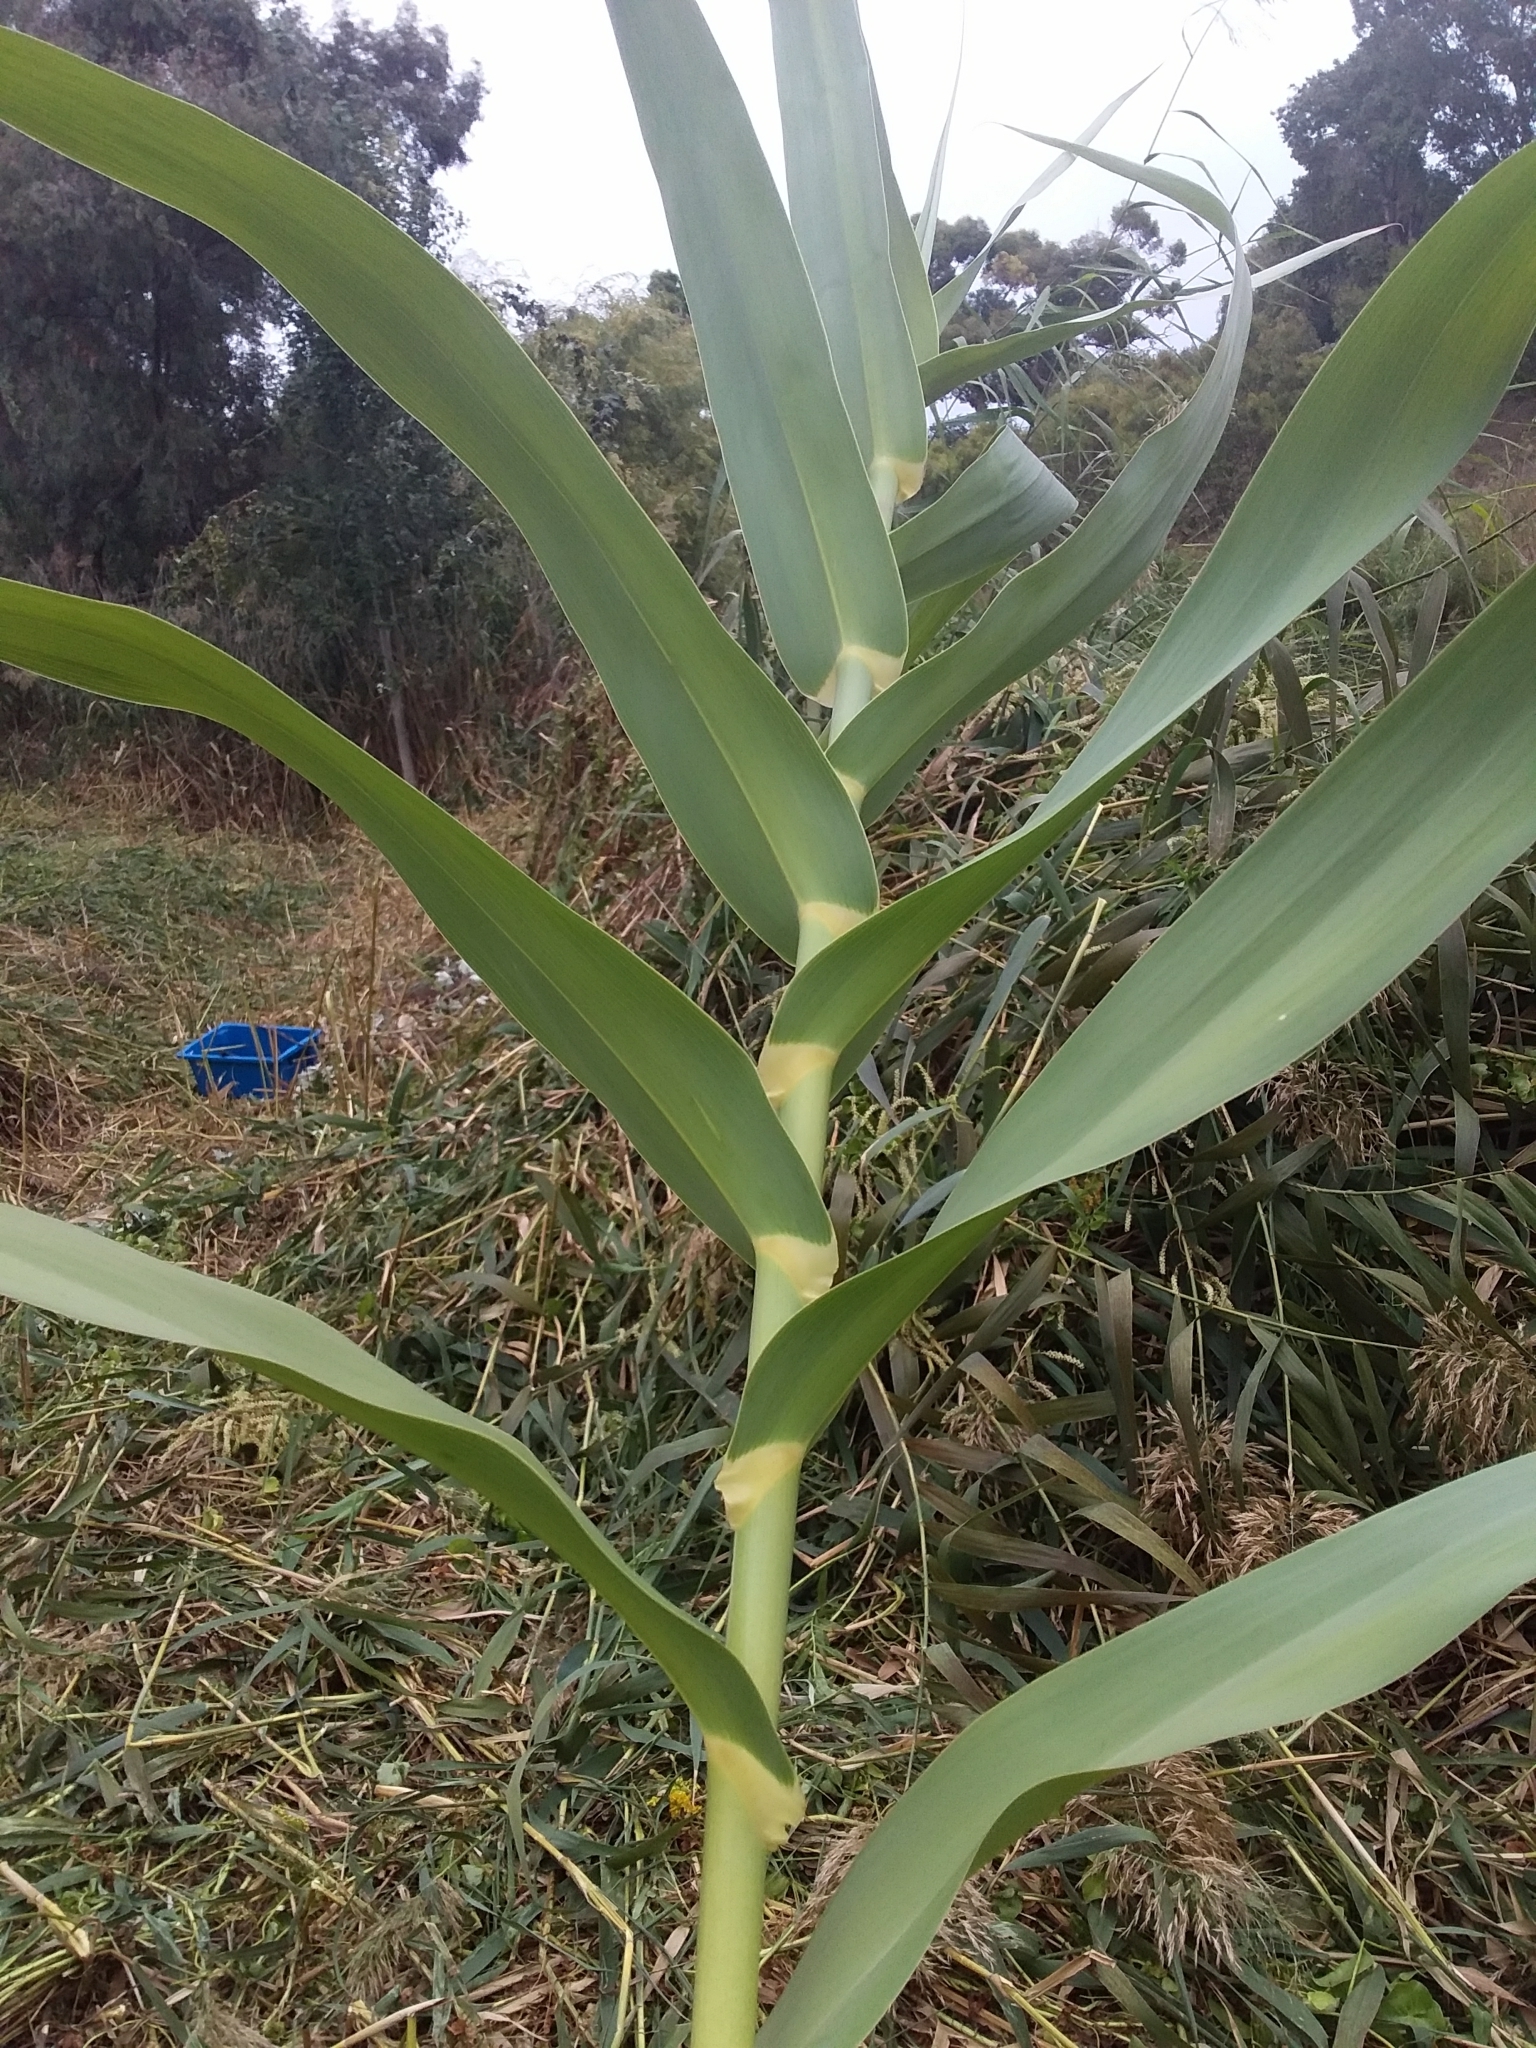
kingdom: Plantae
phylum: Tracheophyta
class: Liliopsida
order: Poales
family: Poaceae
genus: Arundo
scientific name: Arundo donax
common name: Giant reed
